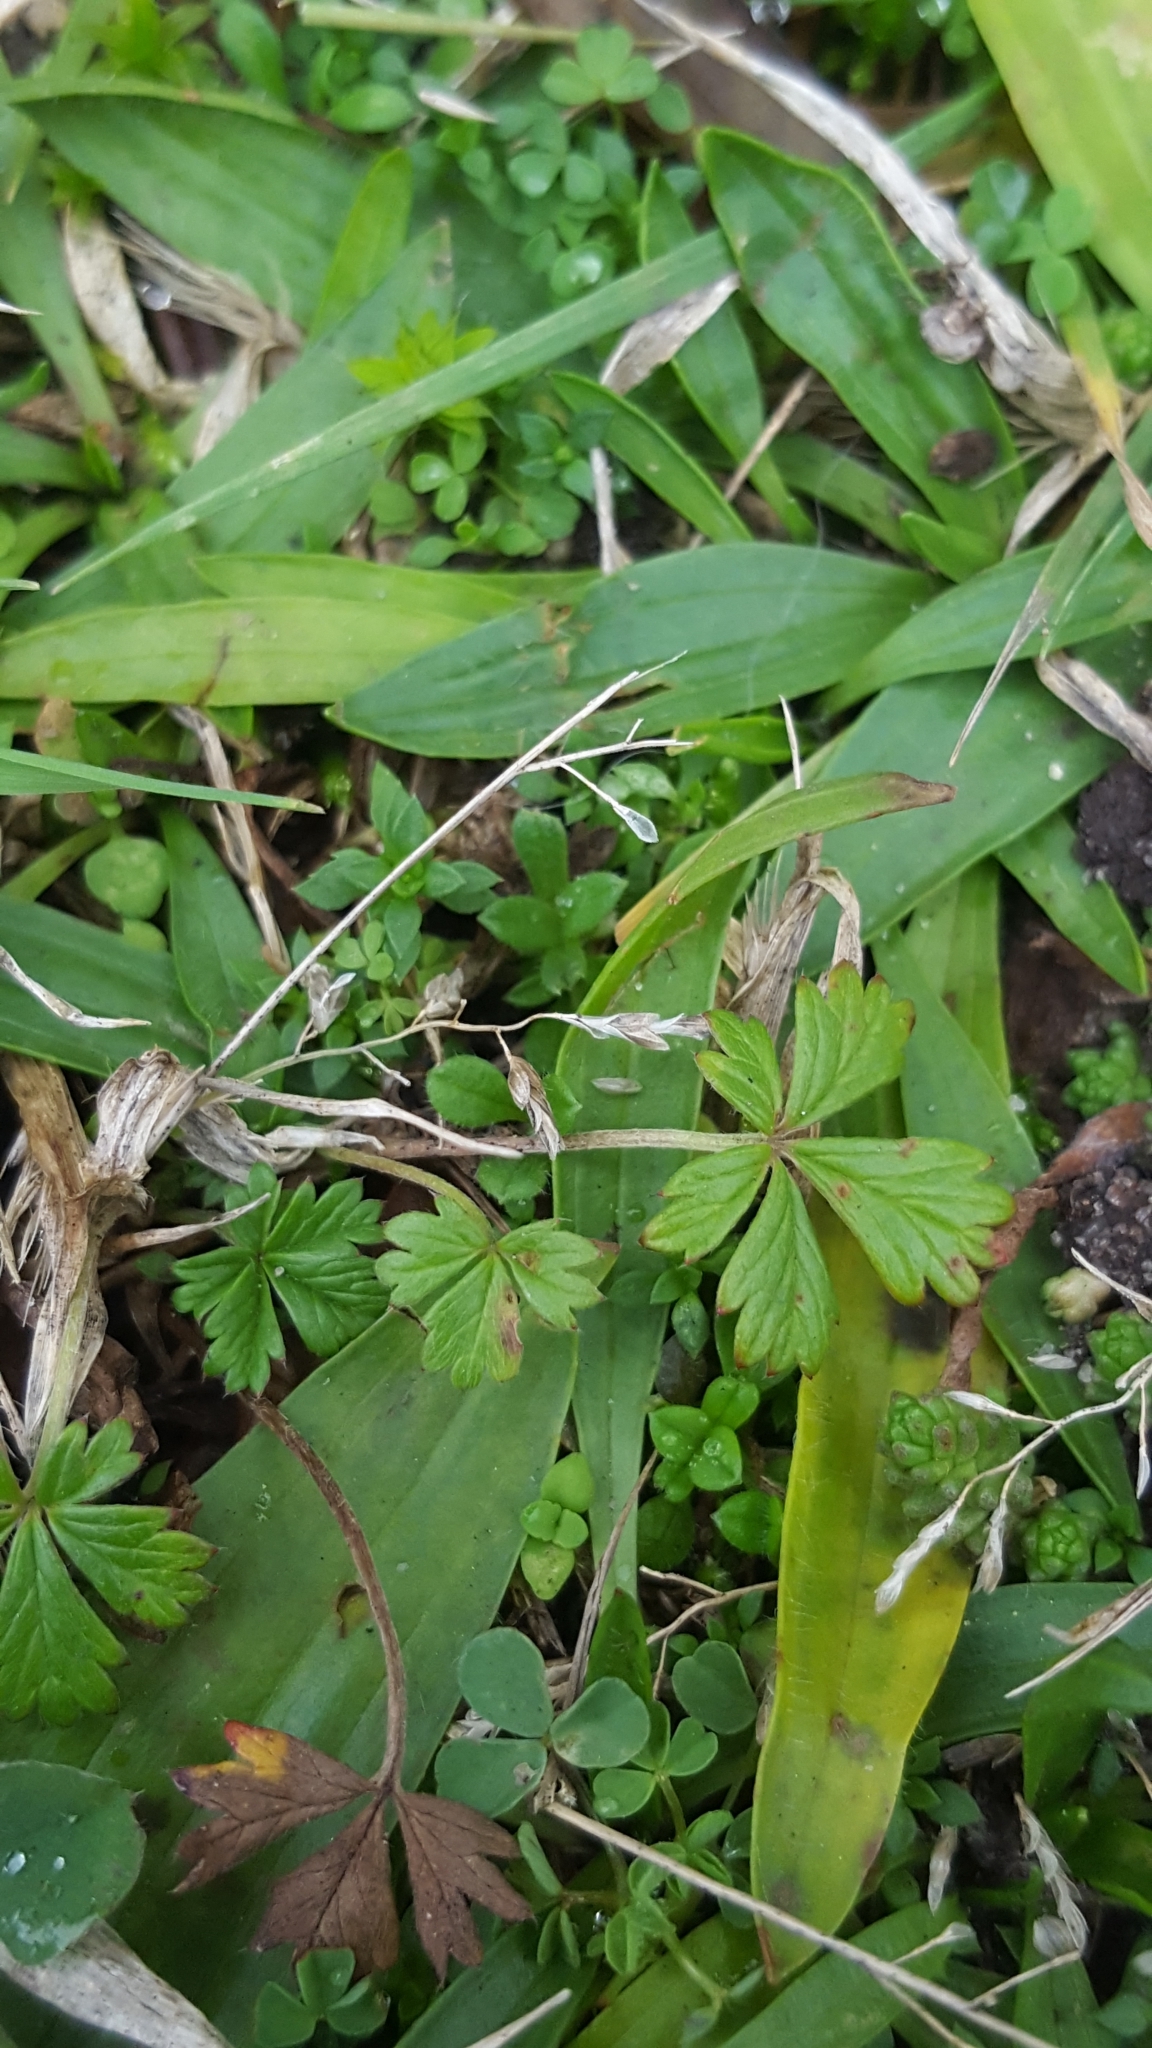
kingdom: Plantae
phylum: Tracheophyta
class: Magnoliopsida
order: Rosales
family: Rosaceae
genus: Potentilla
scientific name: Potentilla argentea
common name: Hoary cinquefoil
